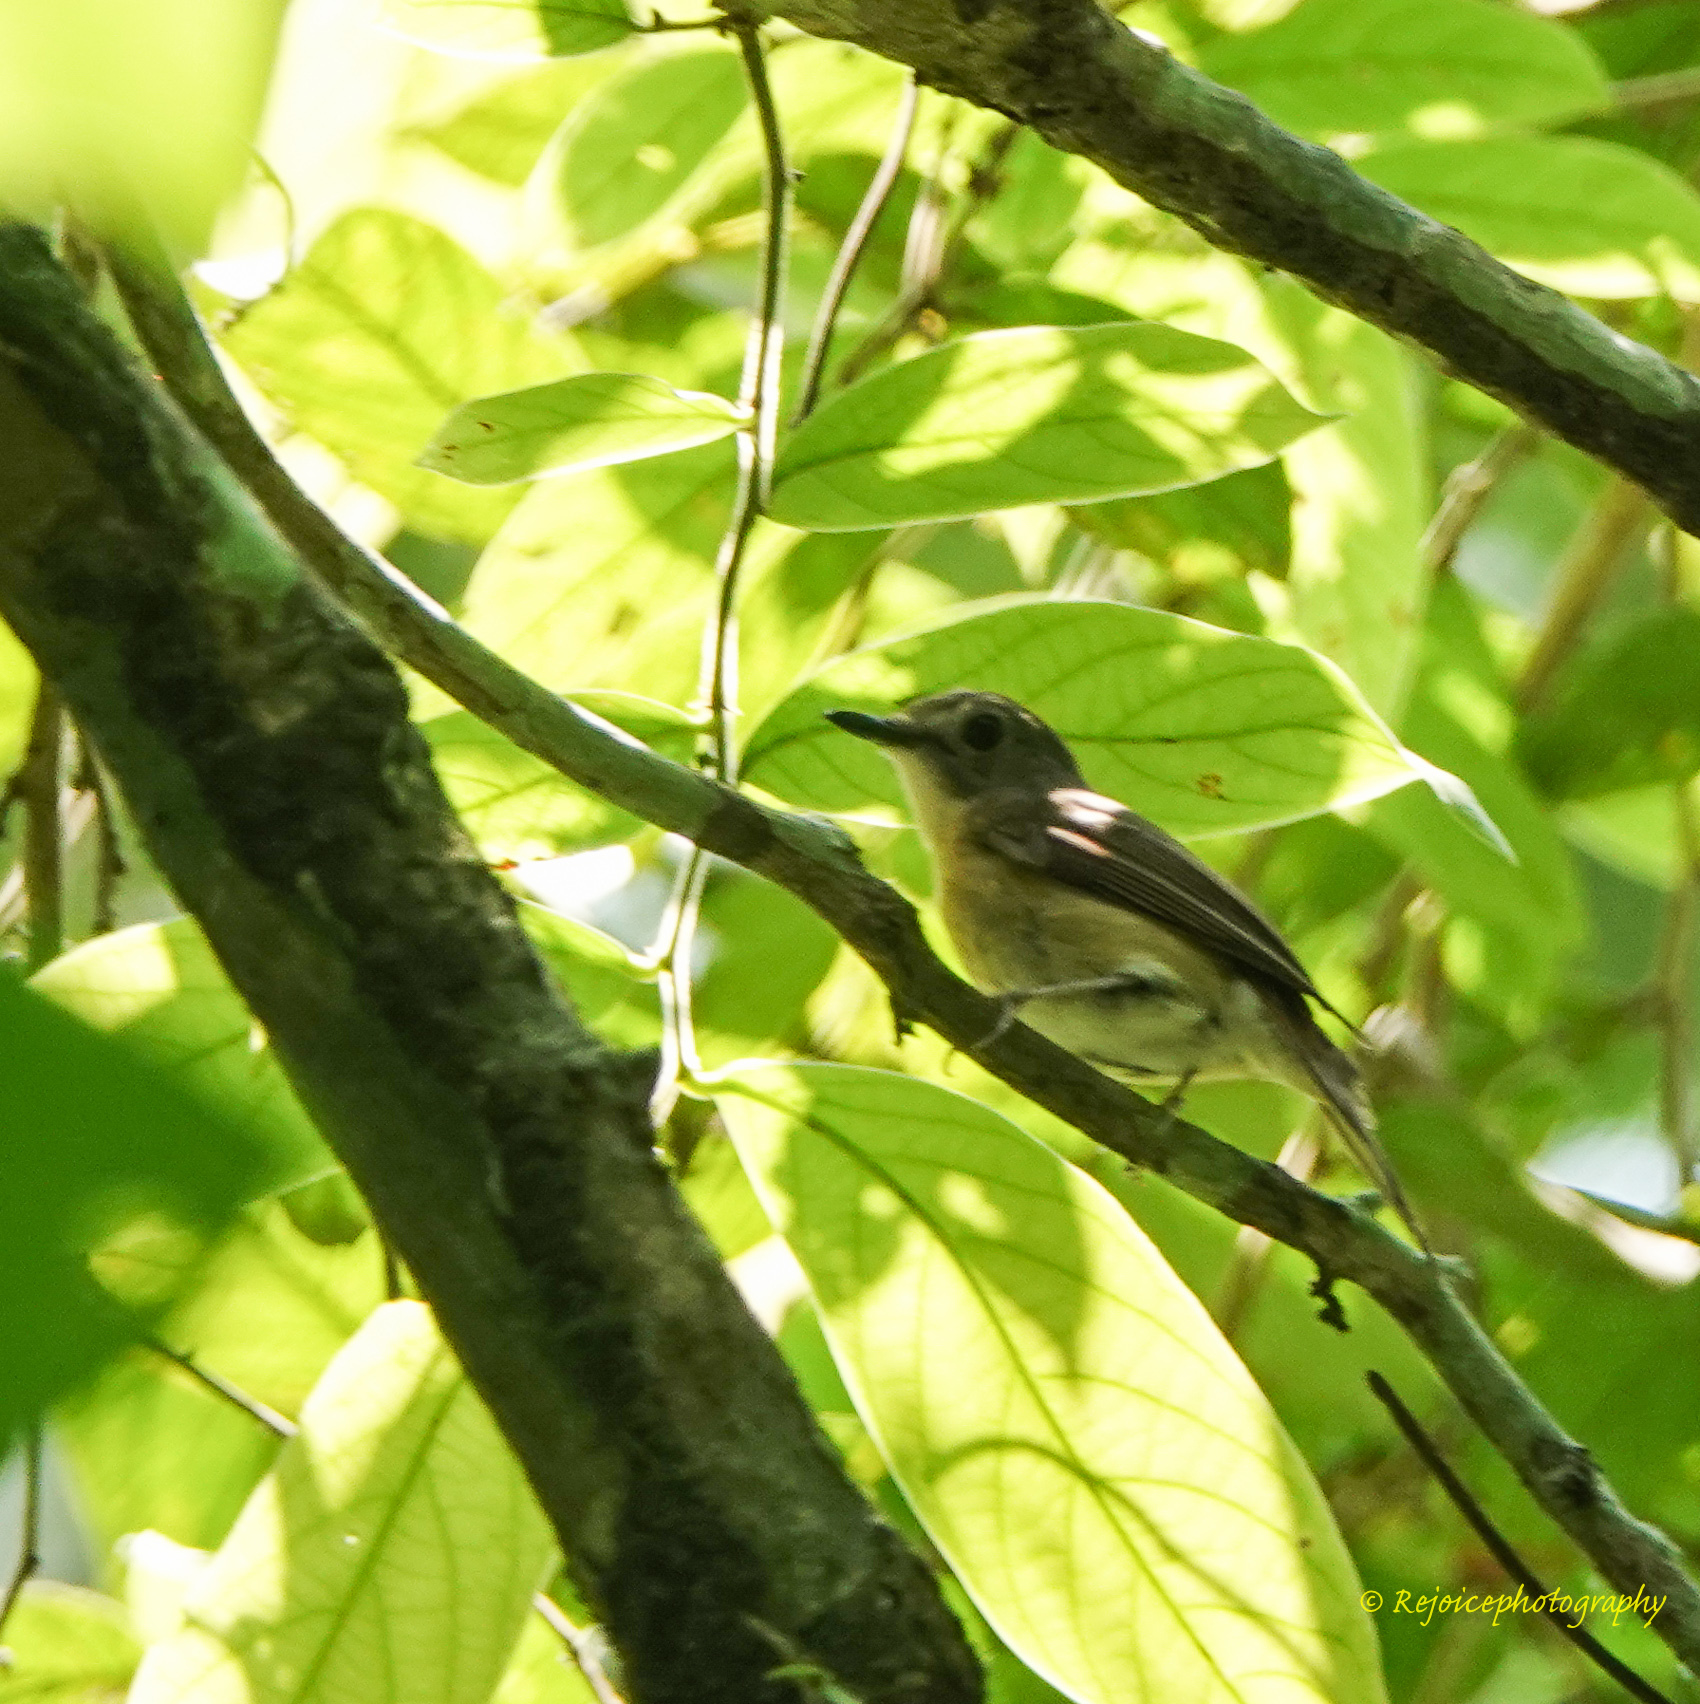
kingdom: Animalia
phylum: Chordata
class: Aves
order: Passeriformes
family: Muscicapidae
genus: Cyornis
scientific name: Cyornis poliogenys
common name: Pale-chinned blue flycatcher
